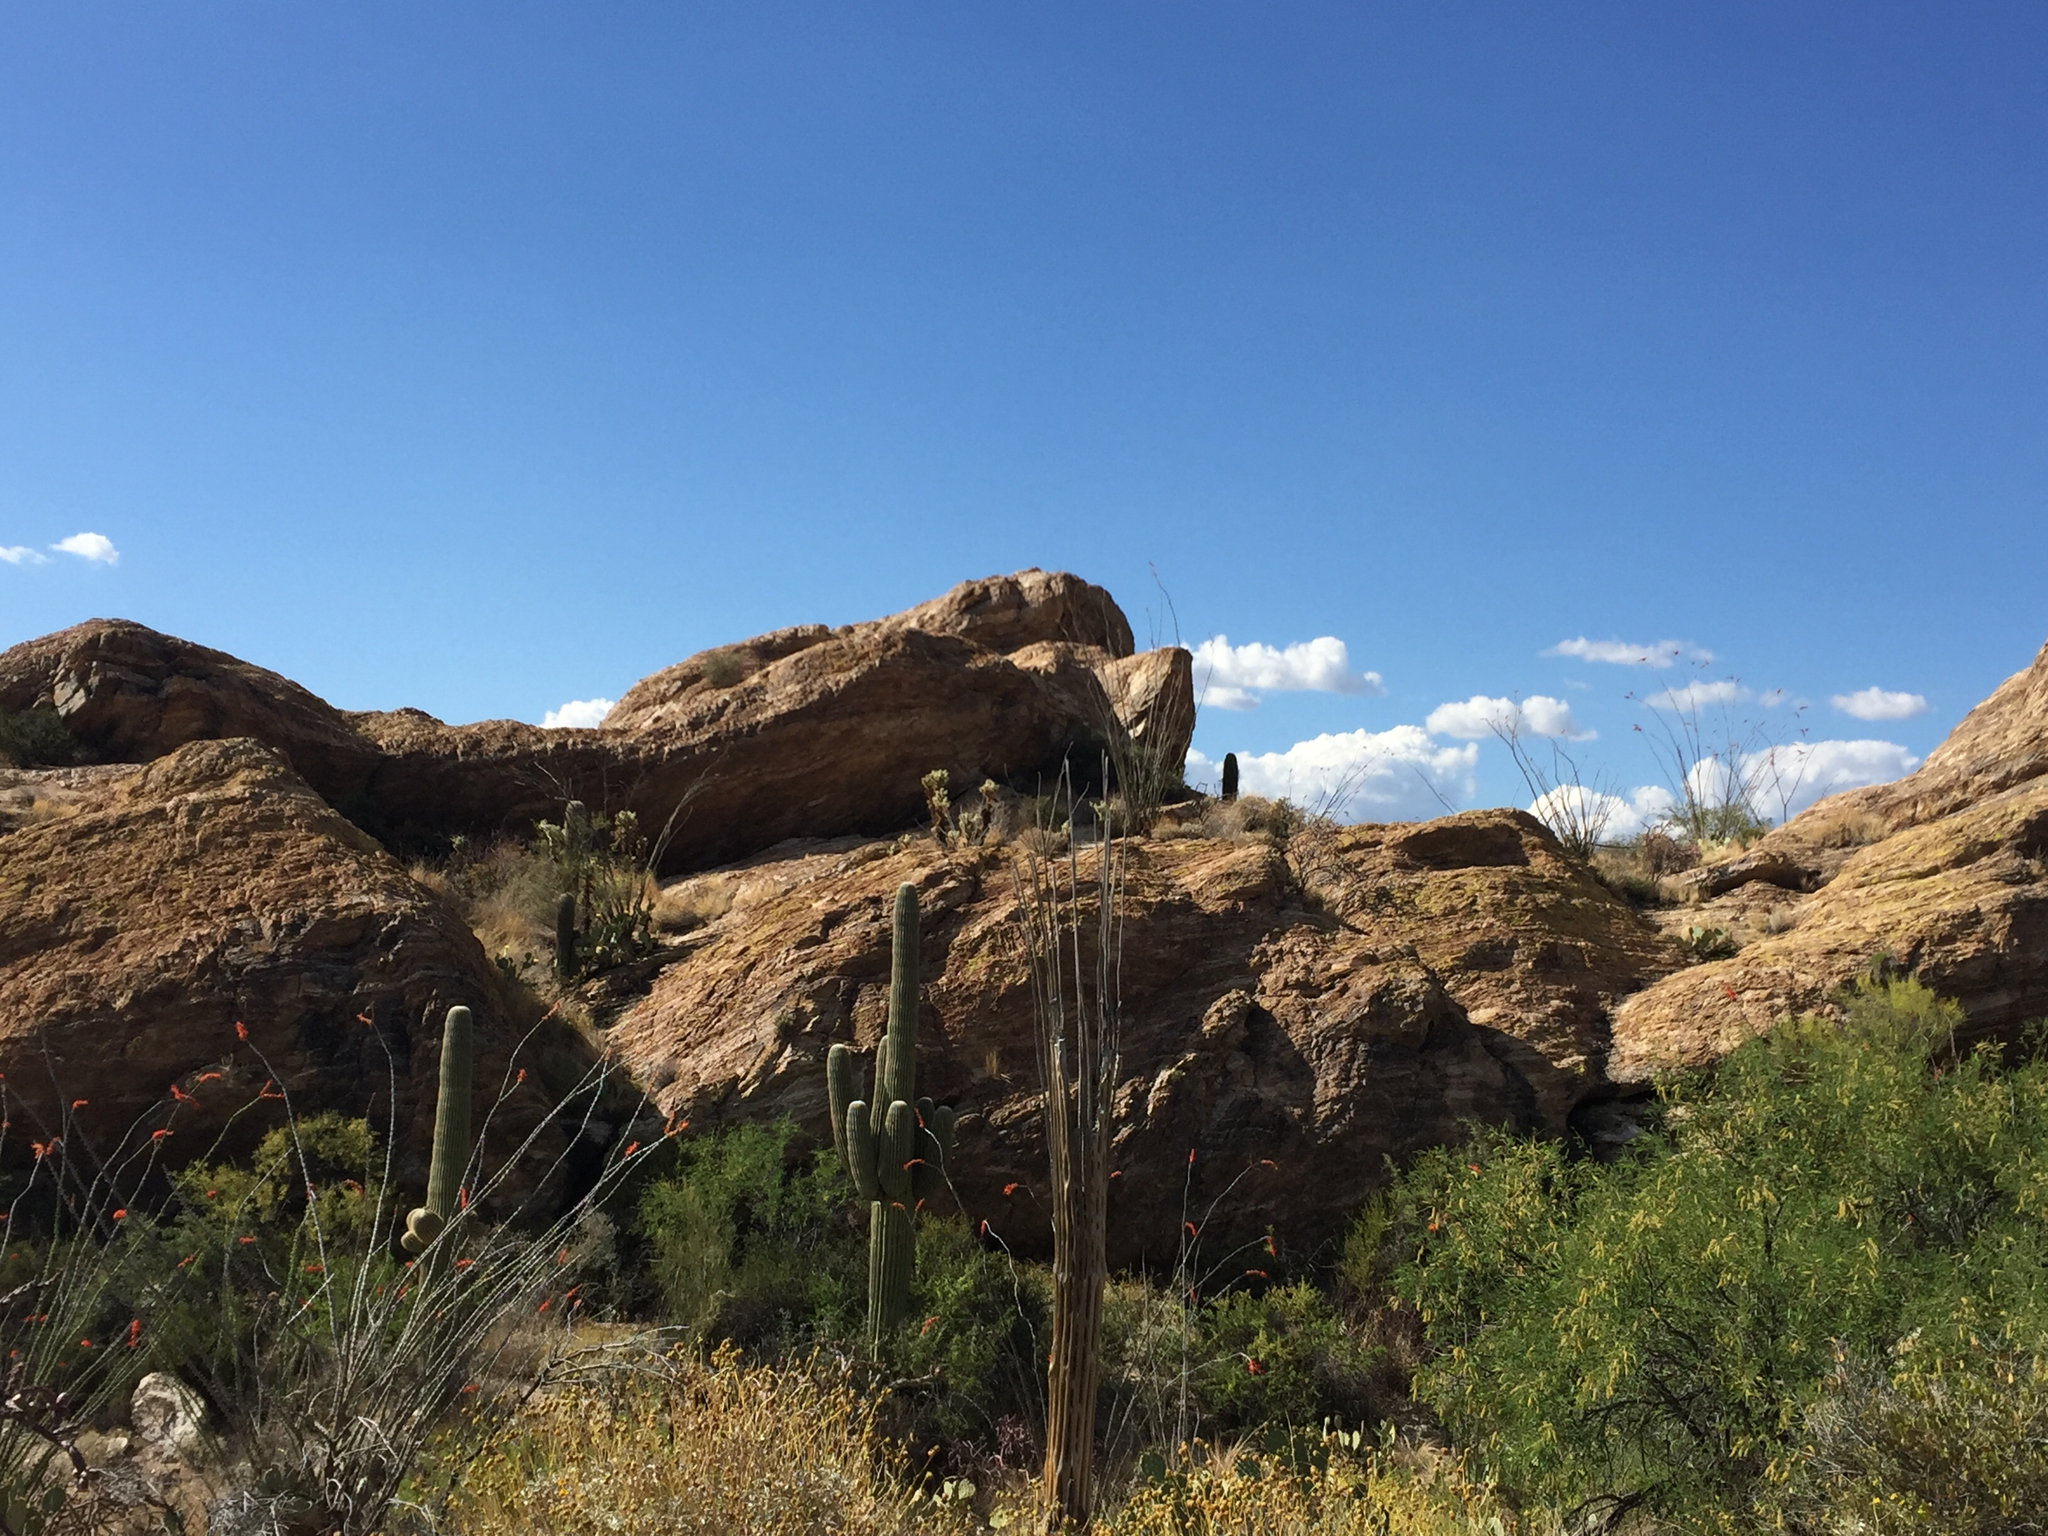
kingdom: Plantae
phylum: Tracheophyta
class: Magnoliopsida
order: Caryophyllales
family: Cactaceae
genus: Carnegiea
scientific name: Carnegiea gigantea
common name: Saguaro
